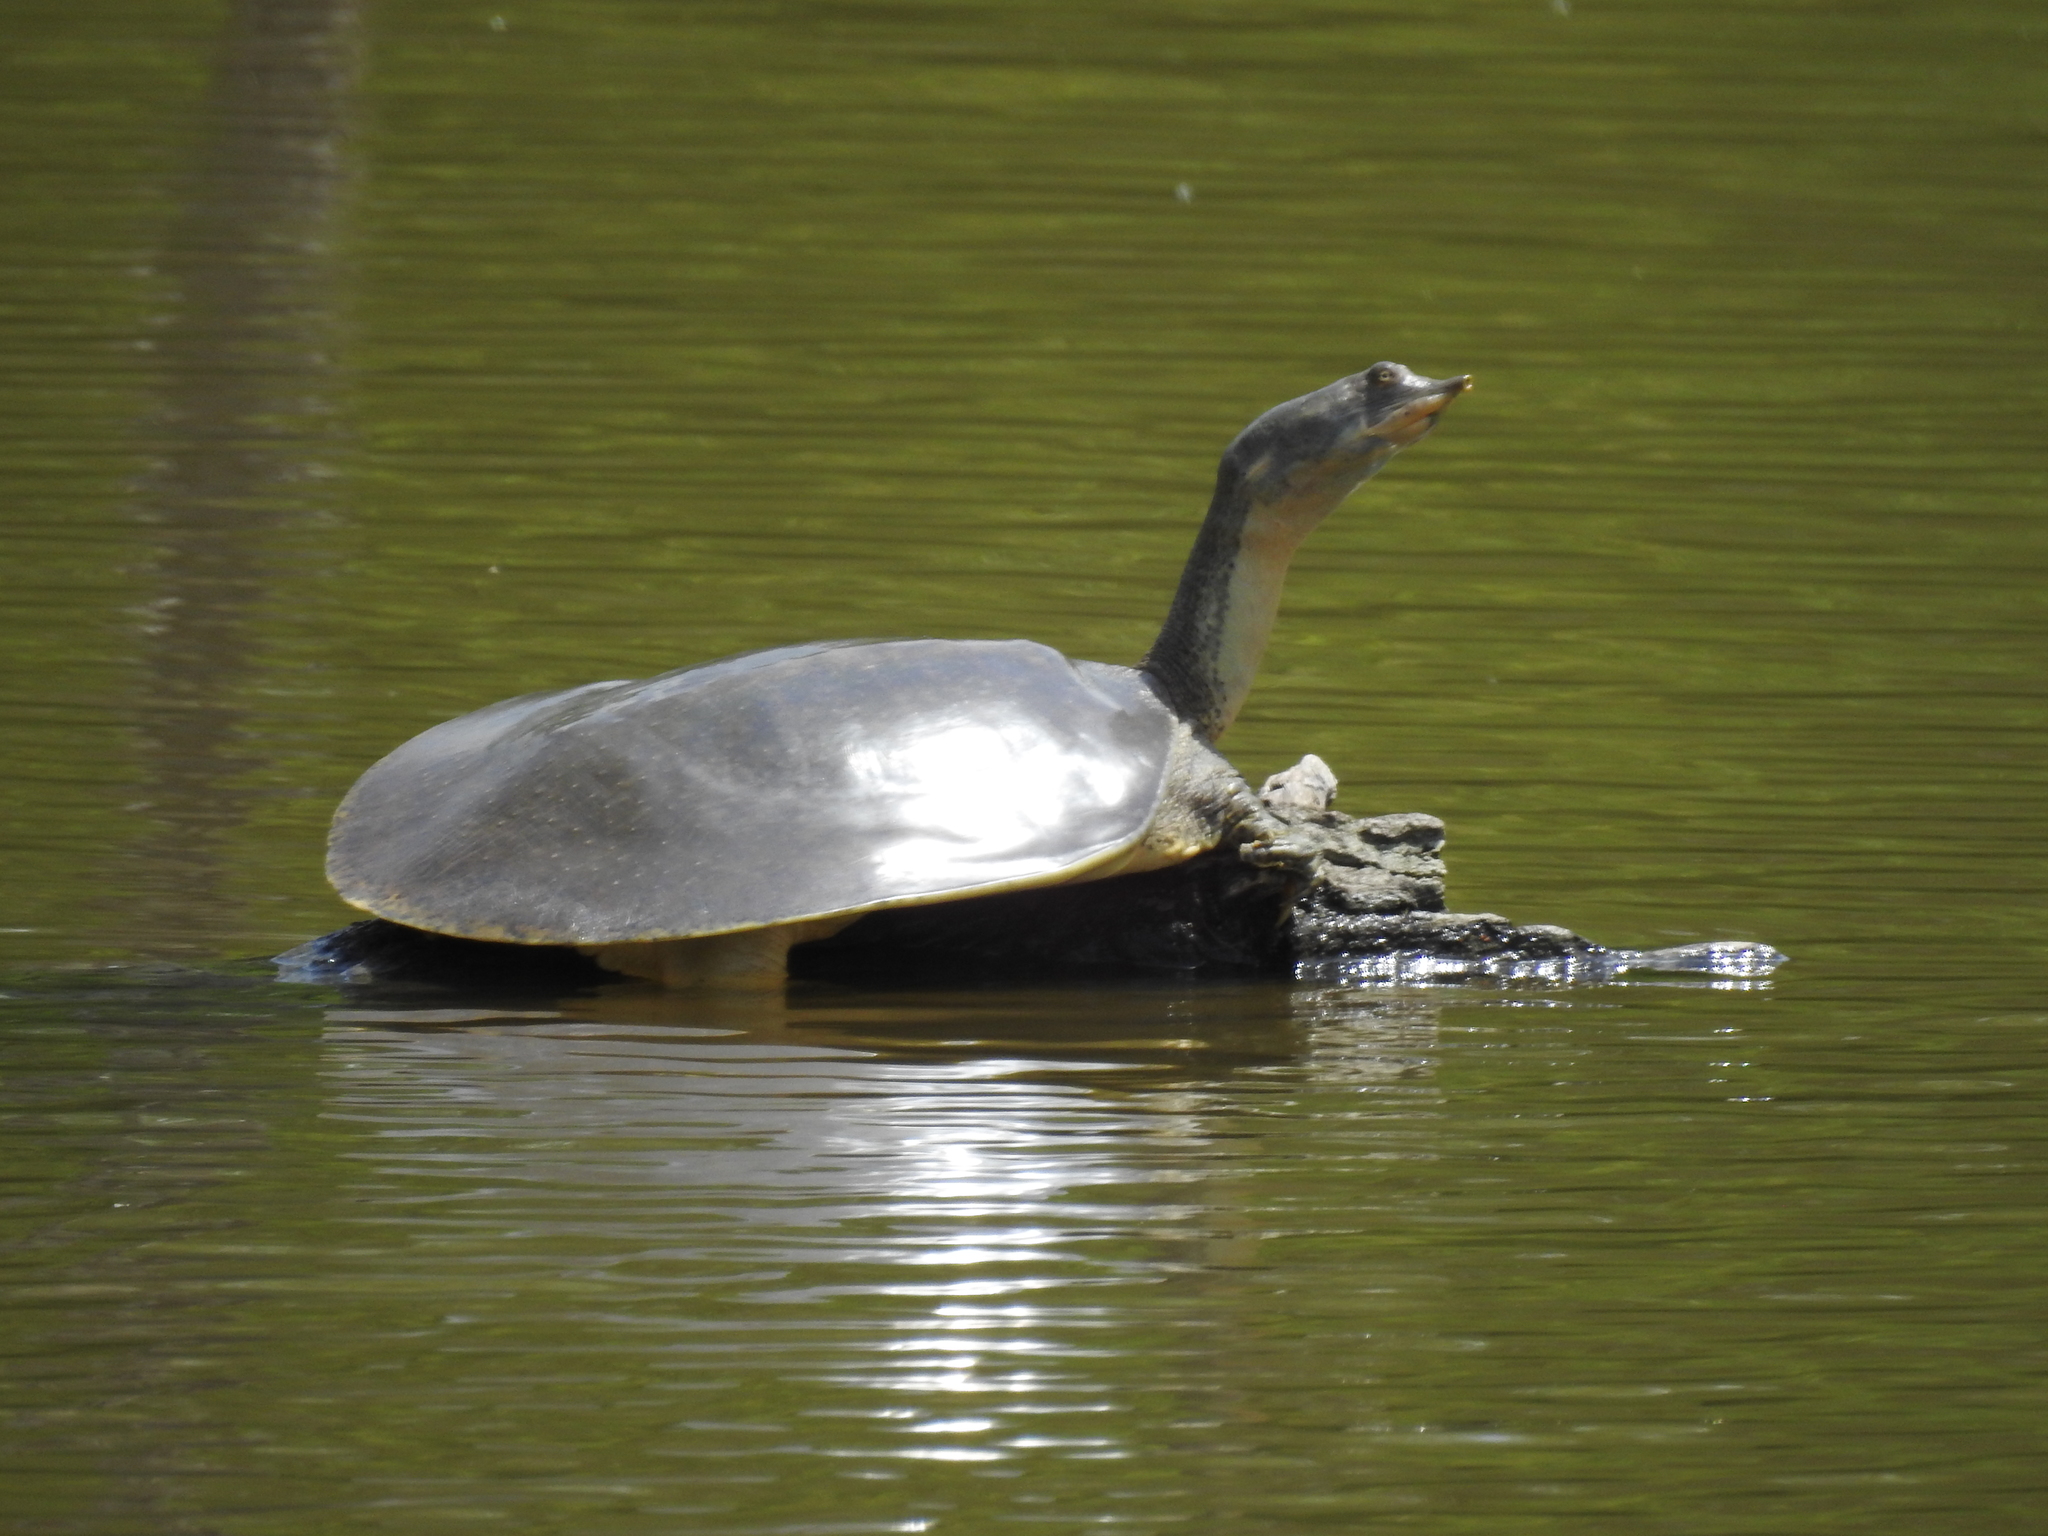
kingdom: Animalia
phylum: Chordata
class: Testudines
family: Trionychidae
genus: Apalone
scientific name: Apalone spinifera
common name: Spiny softshell turtle
